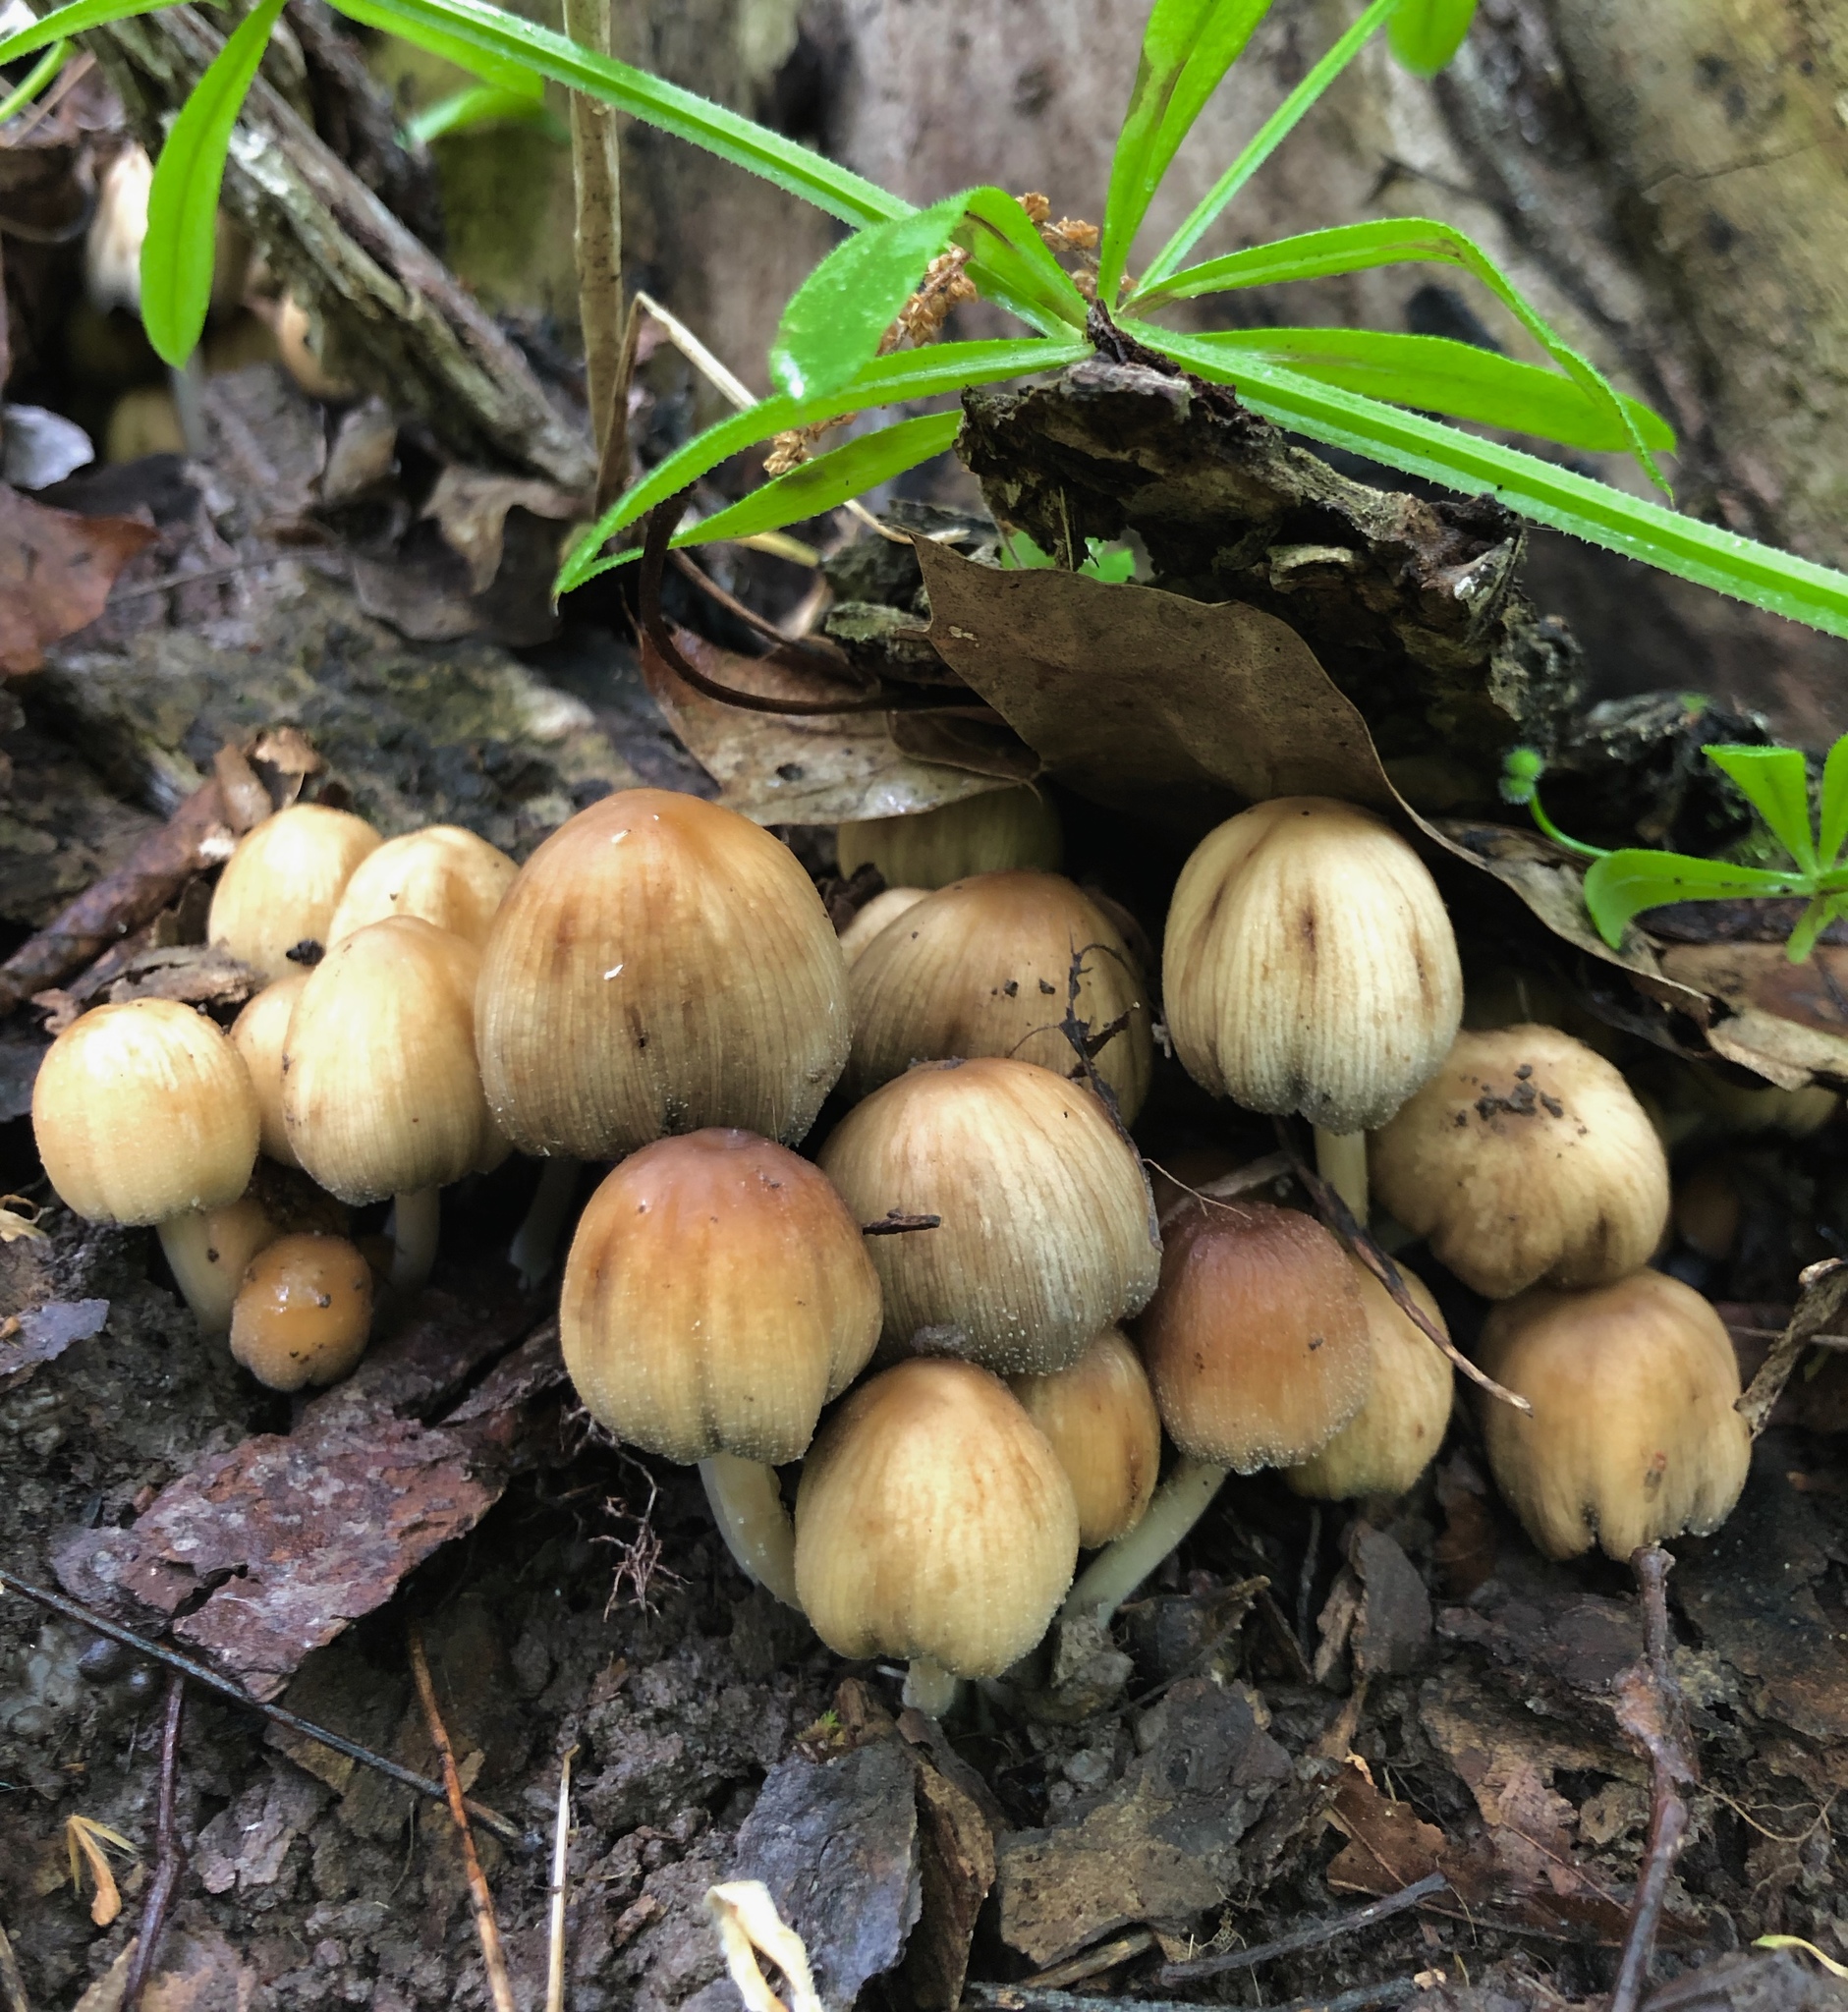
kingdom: Fungi
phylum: Basidiomycota
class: Agaricomycetes
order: Agaricales
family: Psathyrellaceae
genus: Coprinellus
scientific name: Coprinellus micaceus
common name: Glistening ink-cap
